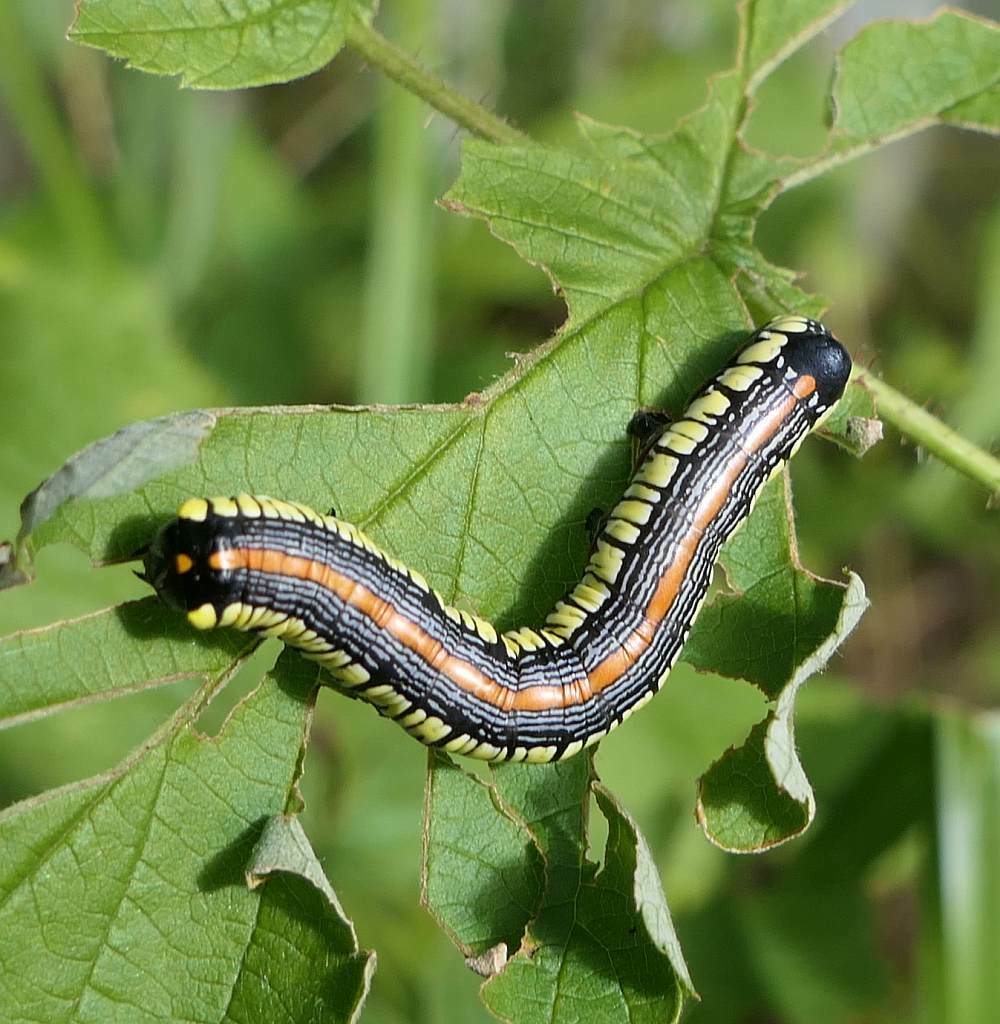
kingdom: Animalia
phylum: Arthropoda
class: Insecta
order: Lepidoptera
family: Noctuidae
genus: Cucullia
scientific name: Cucullia convexipennis
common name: Brown-hooded owlet
